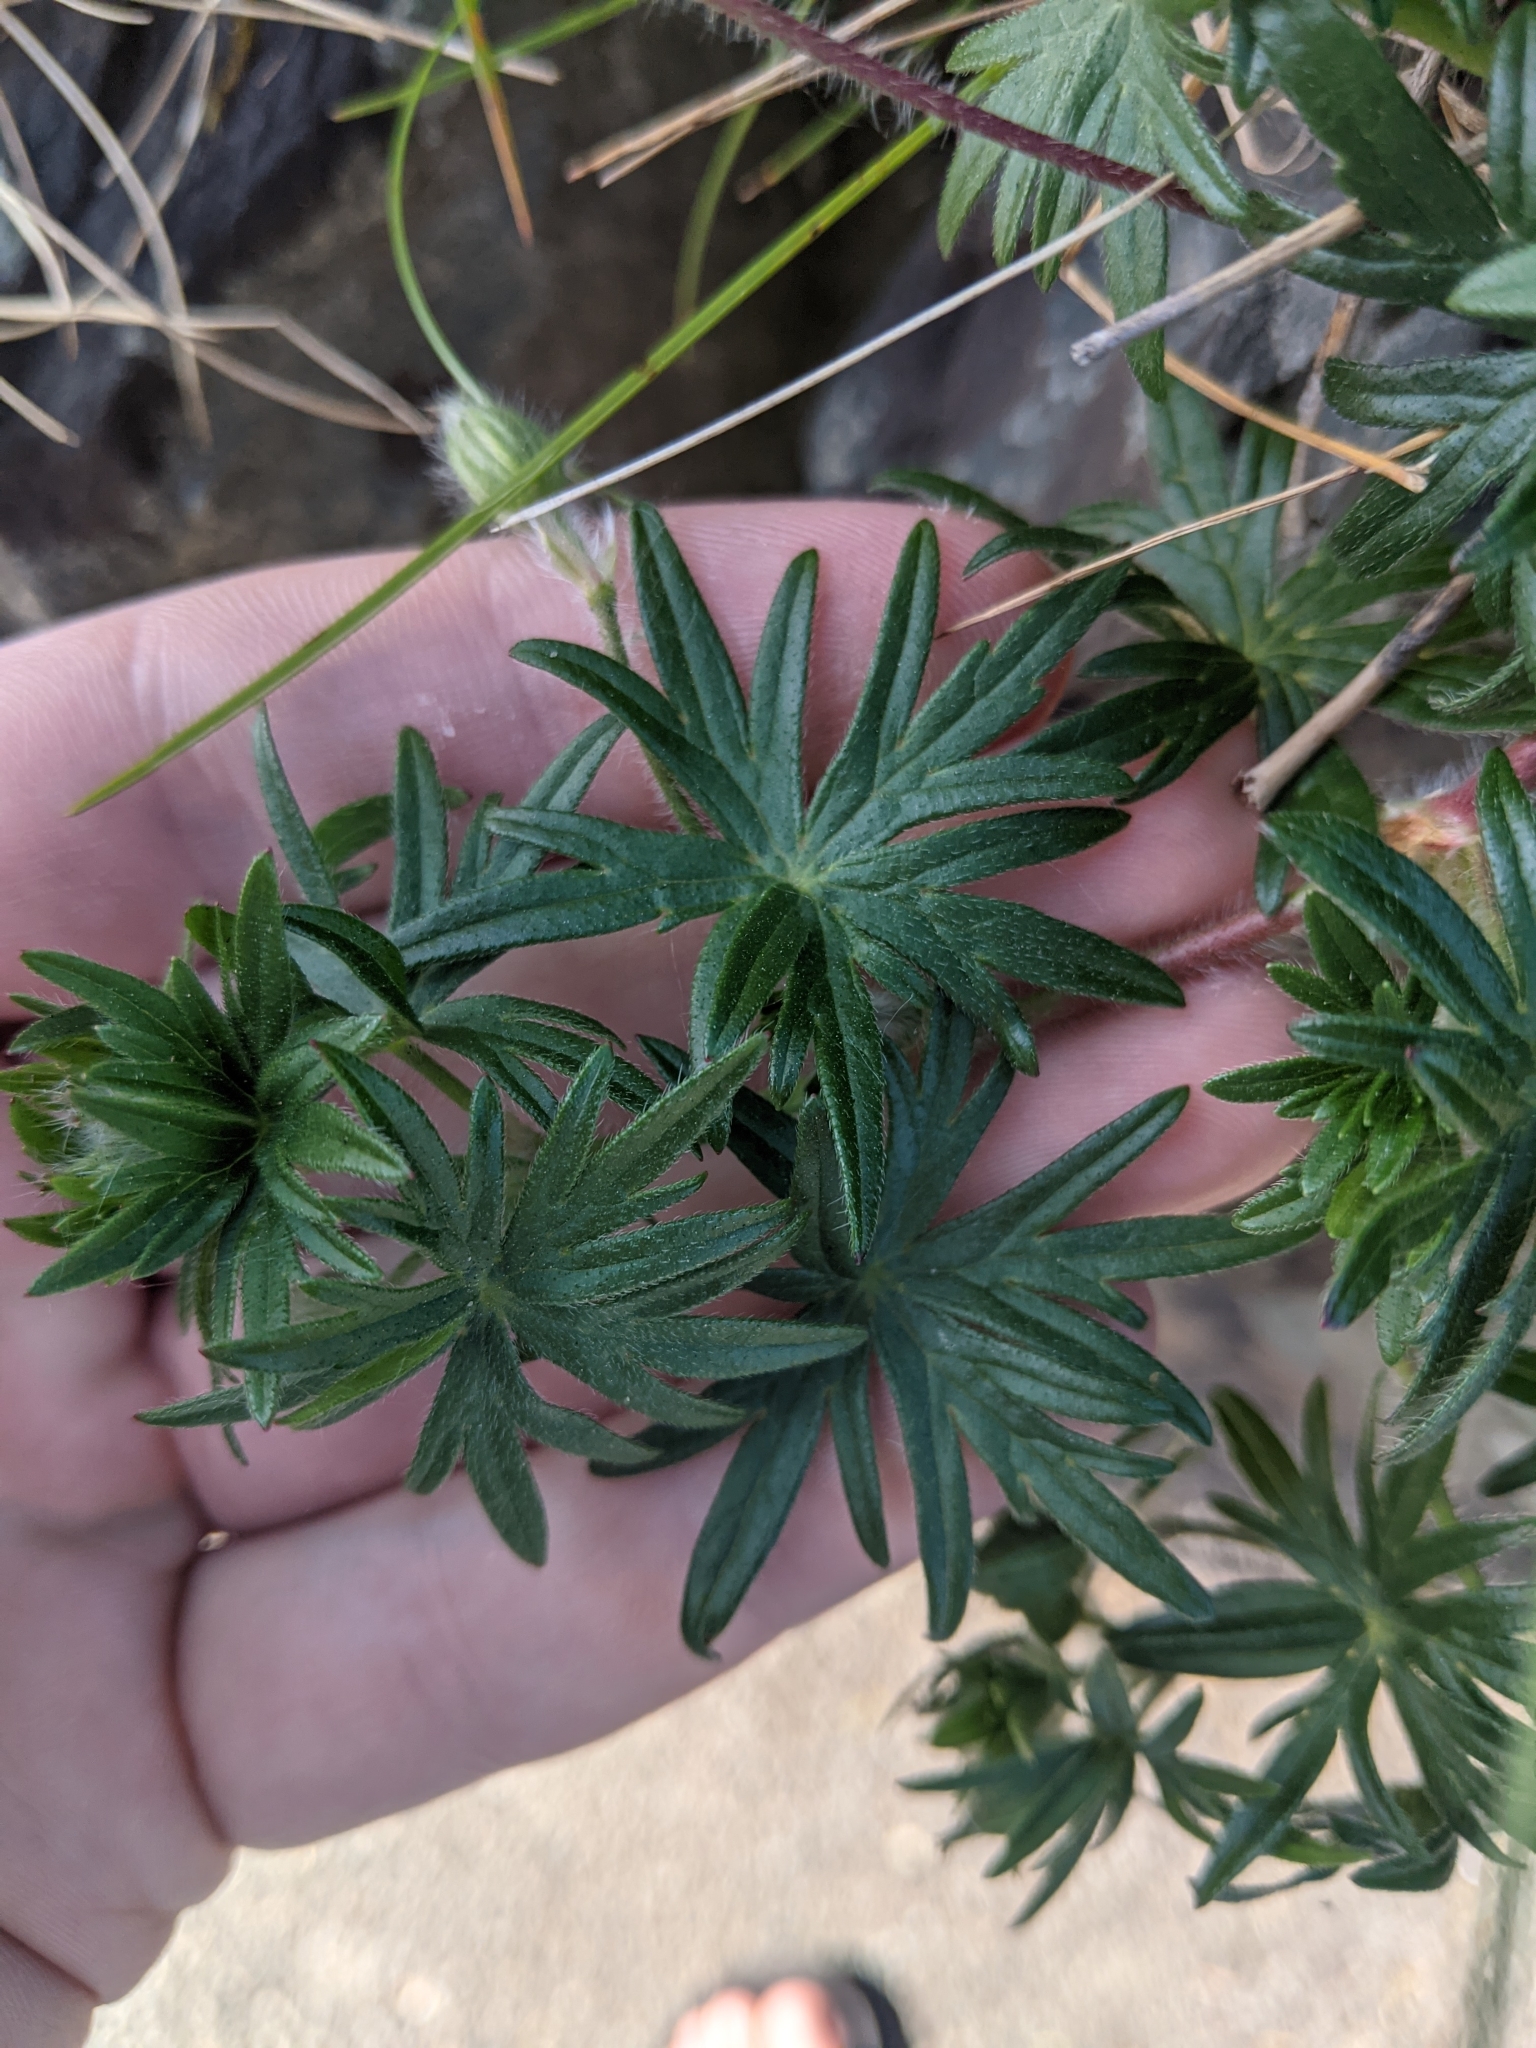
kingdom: Plantae
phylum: Tracheophyta
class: Magnoliopsida
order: Geraniales
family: Geraniaceae
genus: Geranium
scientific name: Geranium sanguineum
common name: Bloody crane's-bill
